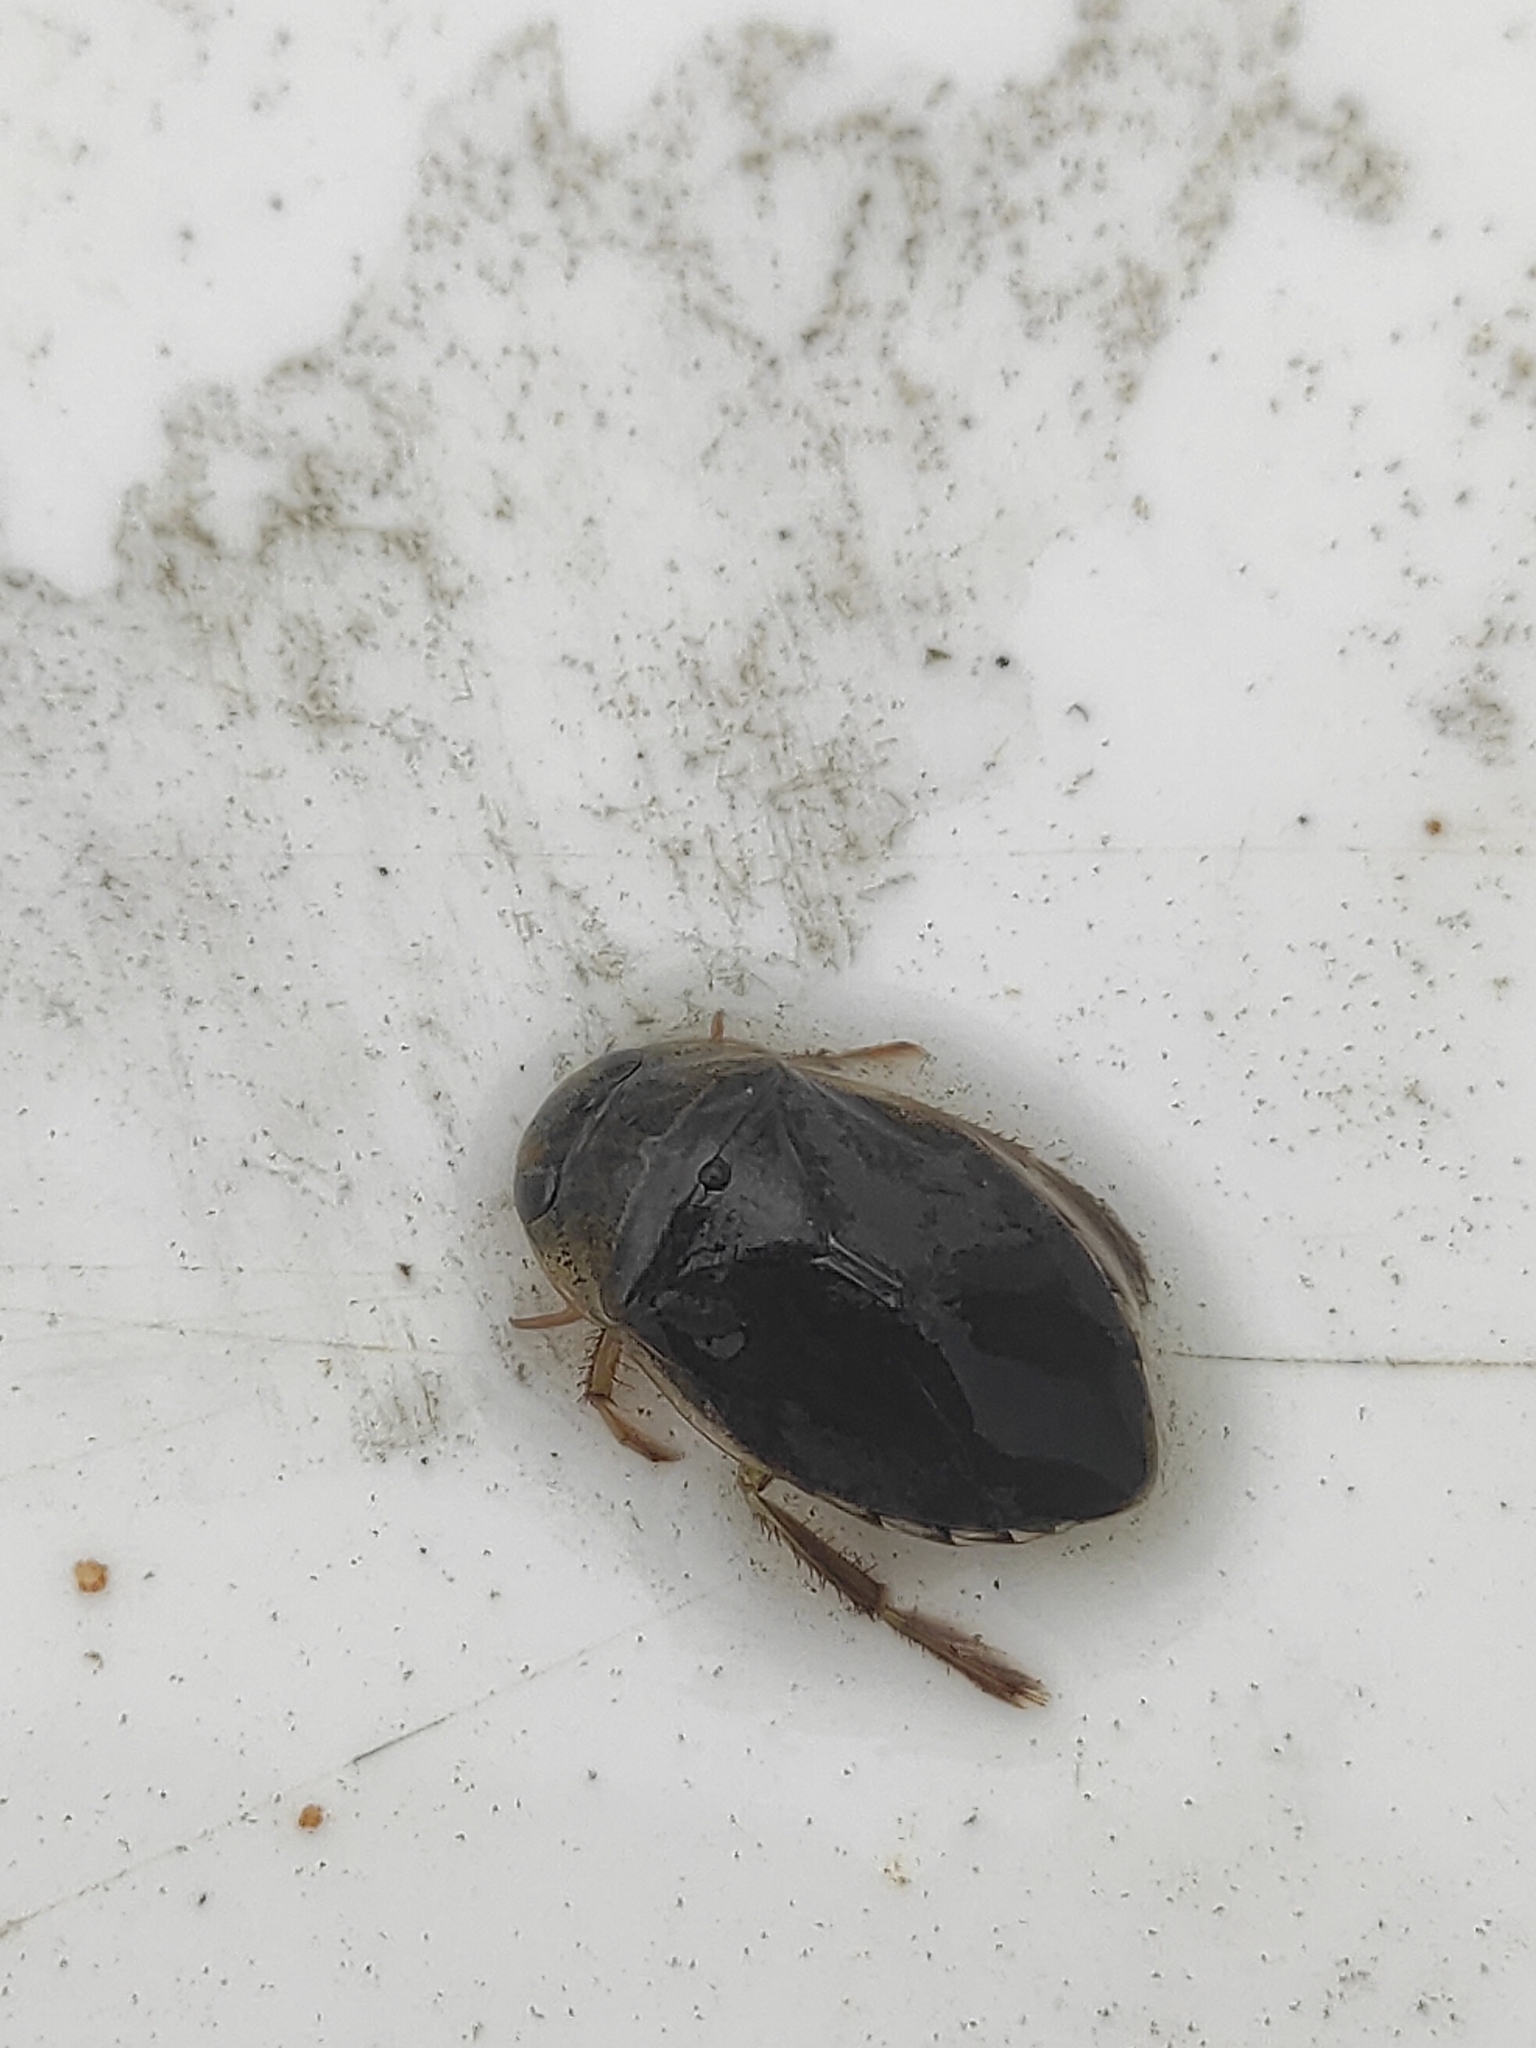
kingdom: Animalia
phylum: Arthropoda
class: Insecta
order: Hemiptera
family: Naucoridae
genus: Ilyocoris
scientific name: Ilyocoris cimicoides
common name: Saucer bugs
